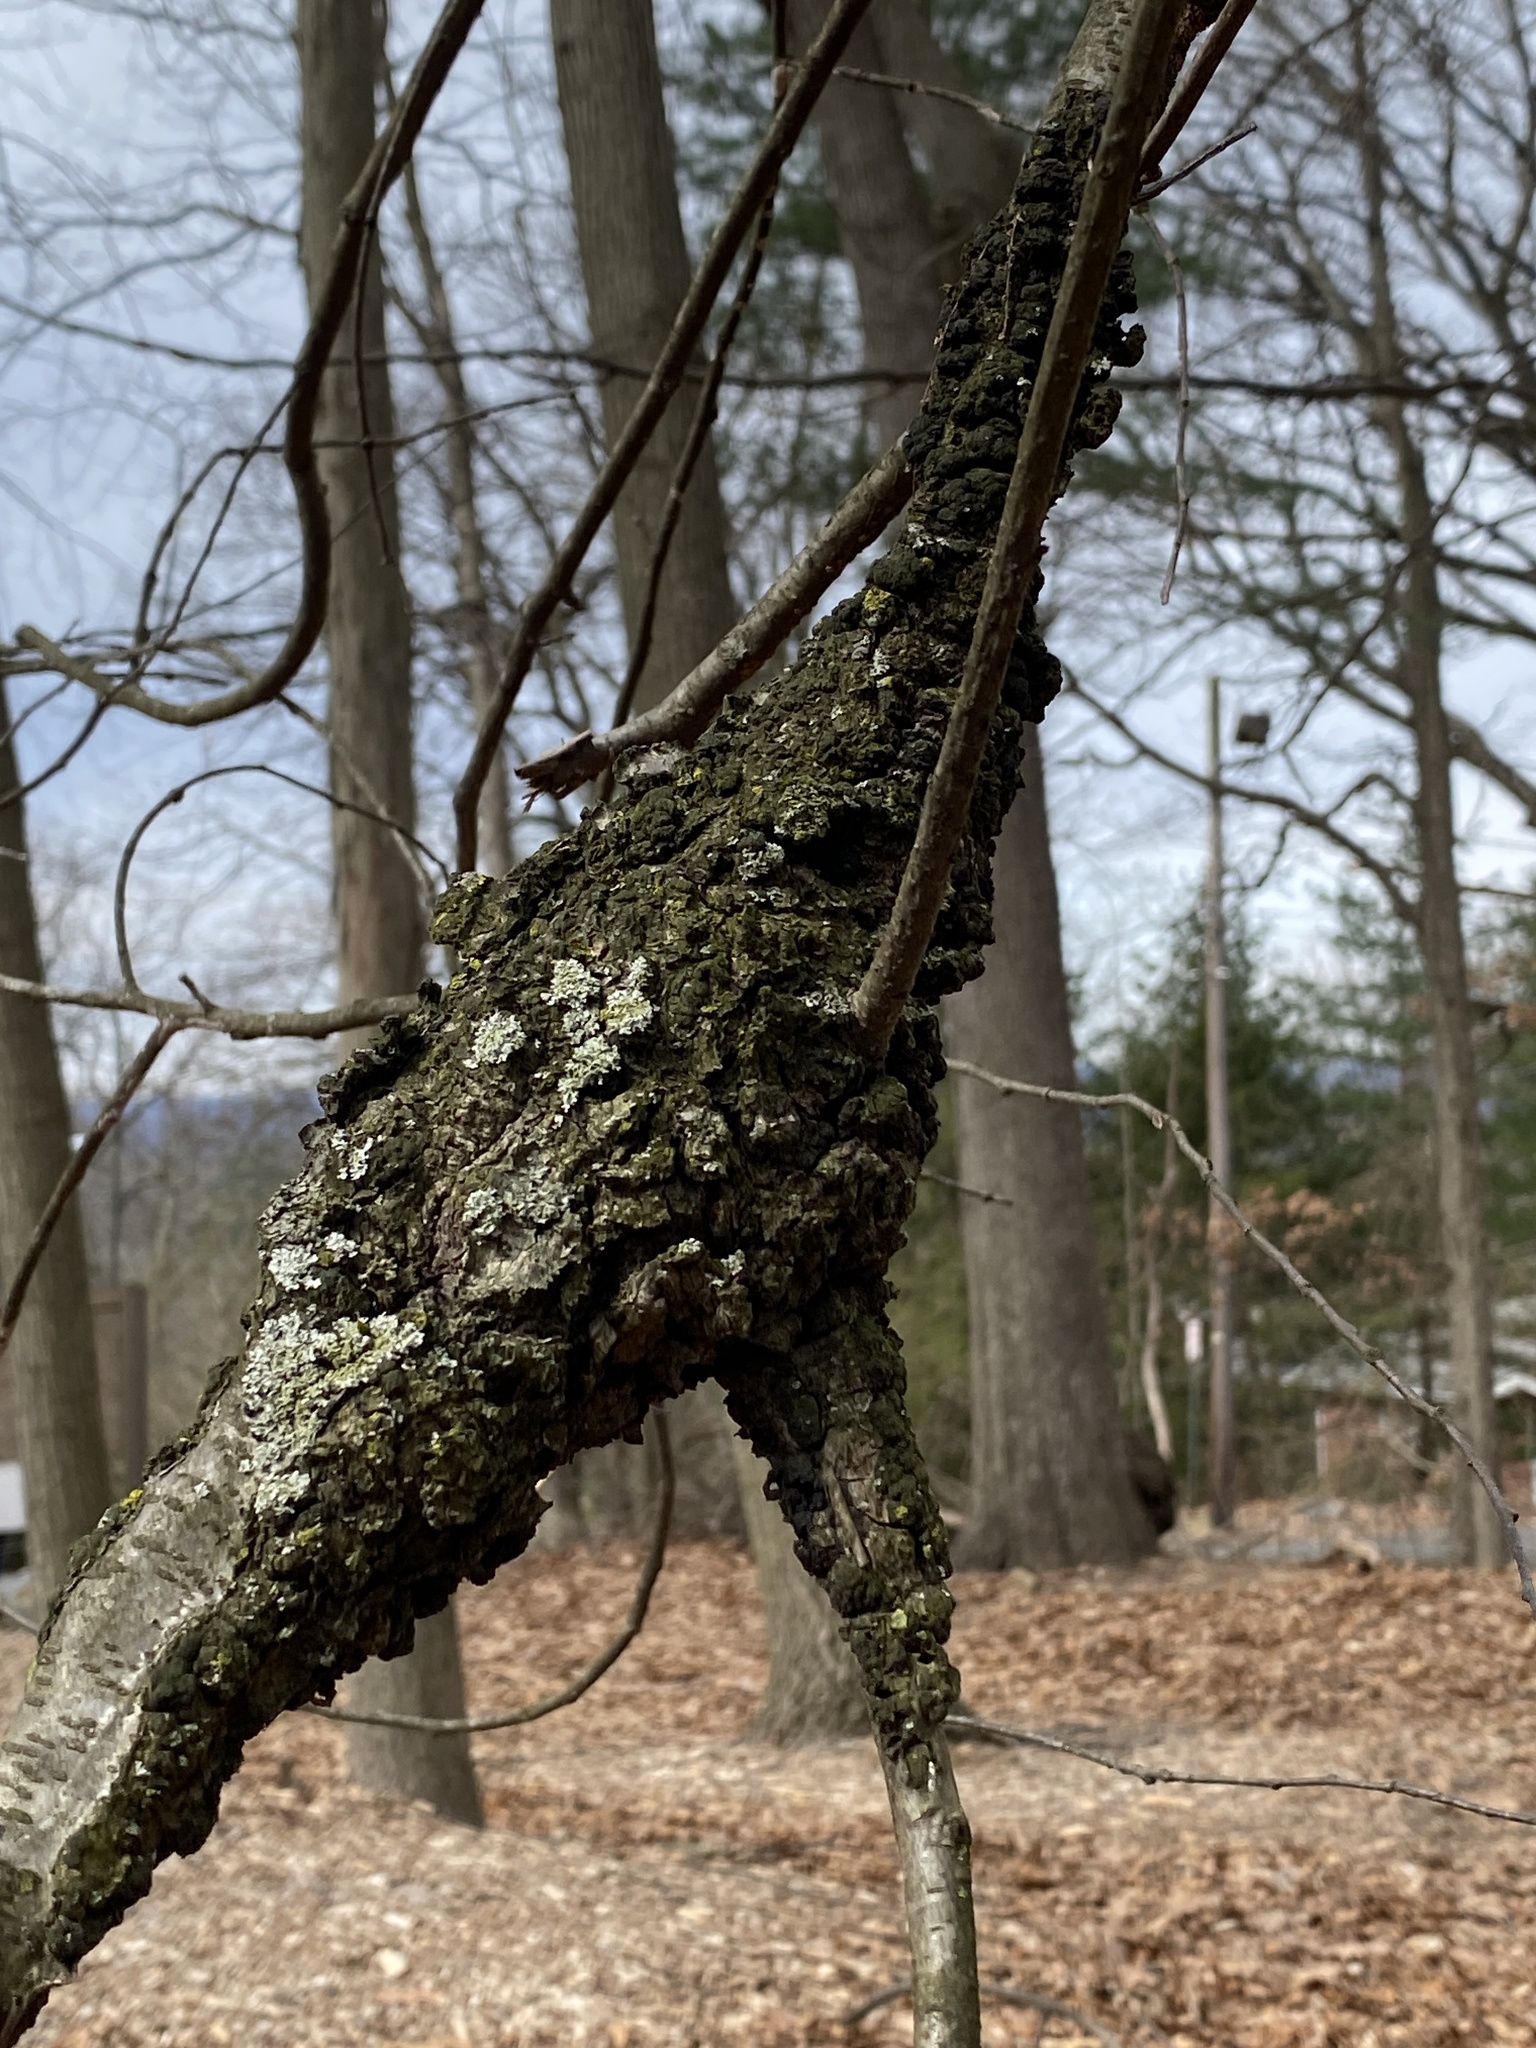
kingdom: Fungi
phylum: Ascomycota
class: Dothideomycetes
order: Venturiales
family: Venturiaceae
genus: Apiosporina
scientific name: Apiosporina morbosa
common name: Black knot
